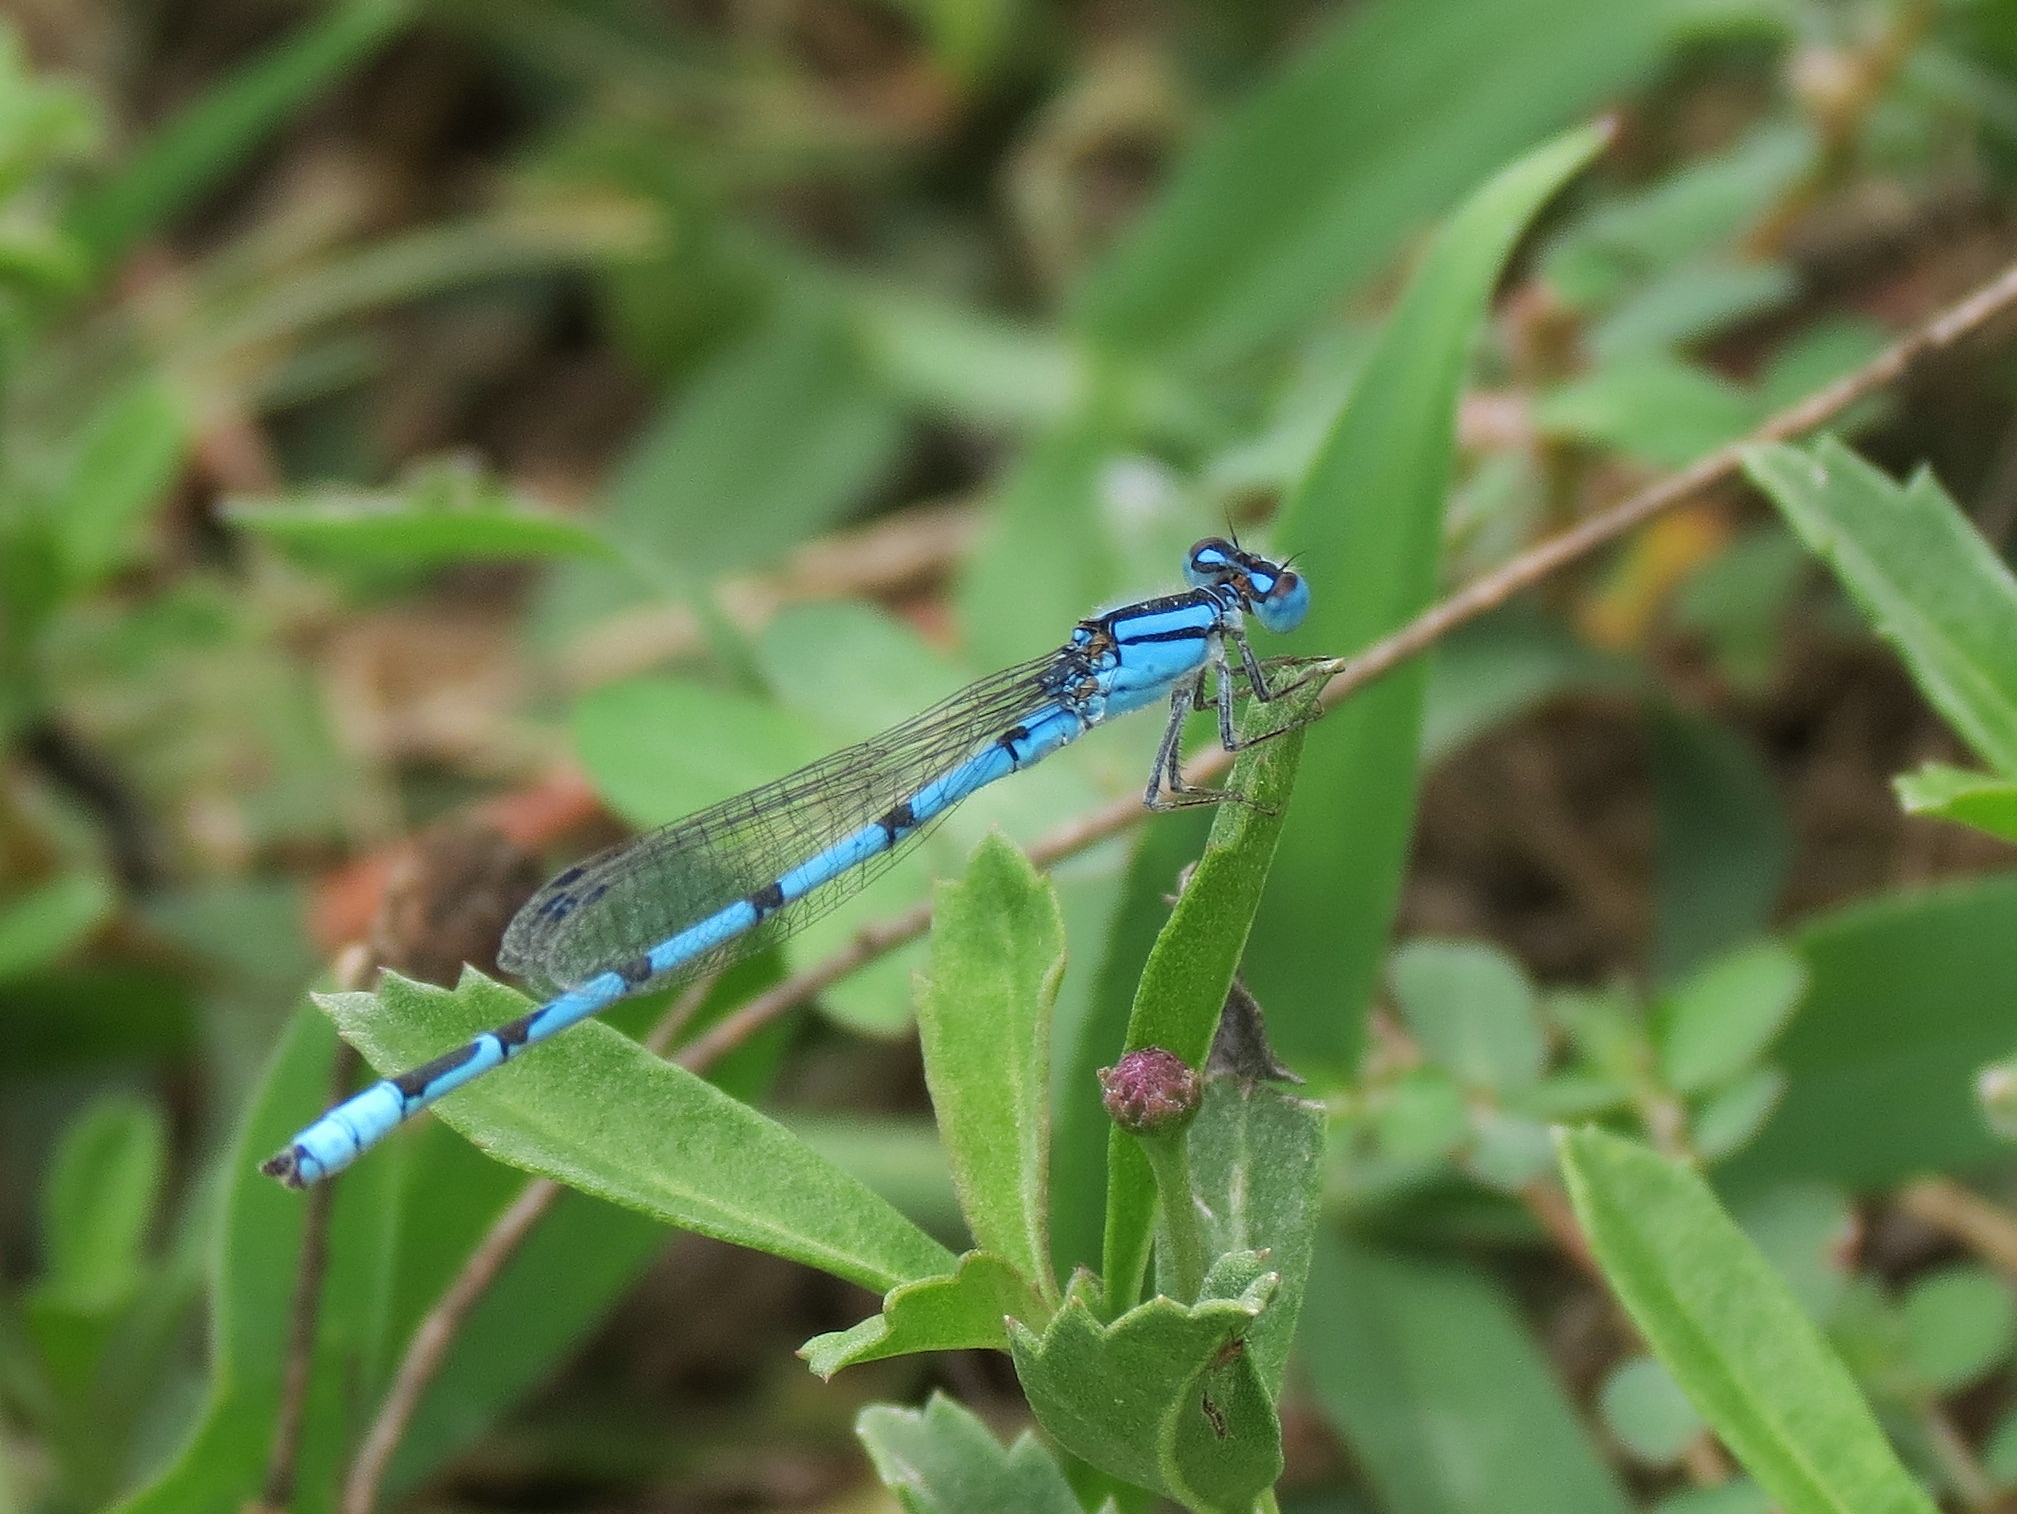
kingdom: Animalia
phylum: Arthropoda
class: Insecta
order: Odonata
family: Coenagrionidae
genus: Enallagma
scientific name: Enallagma civile
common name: Damselfly
